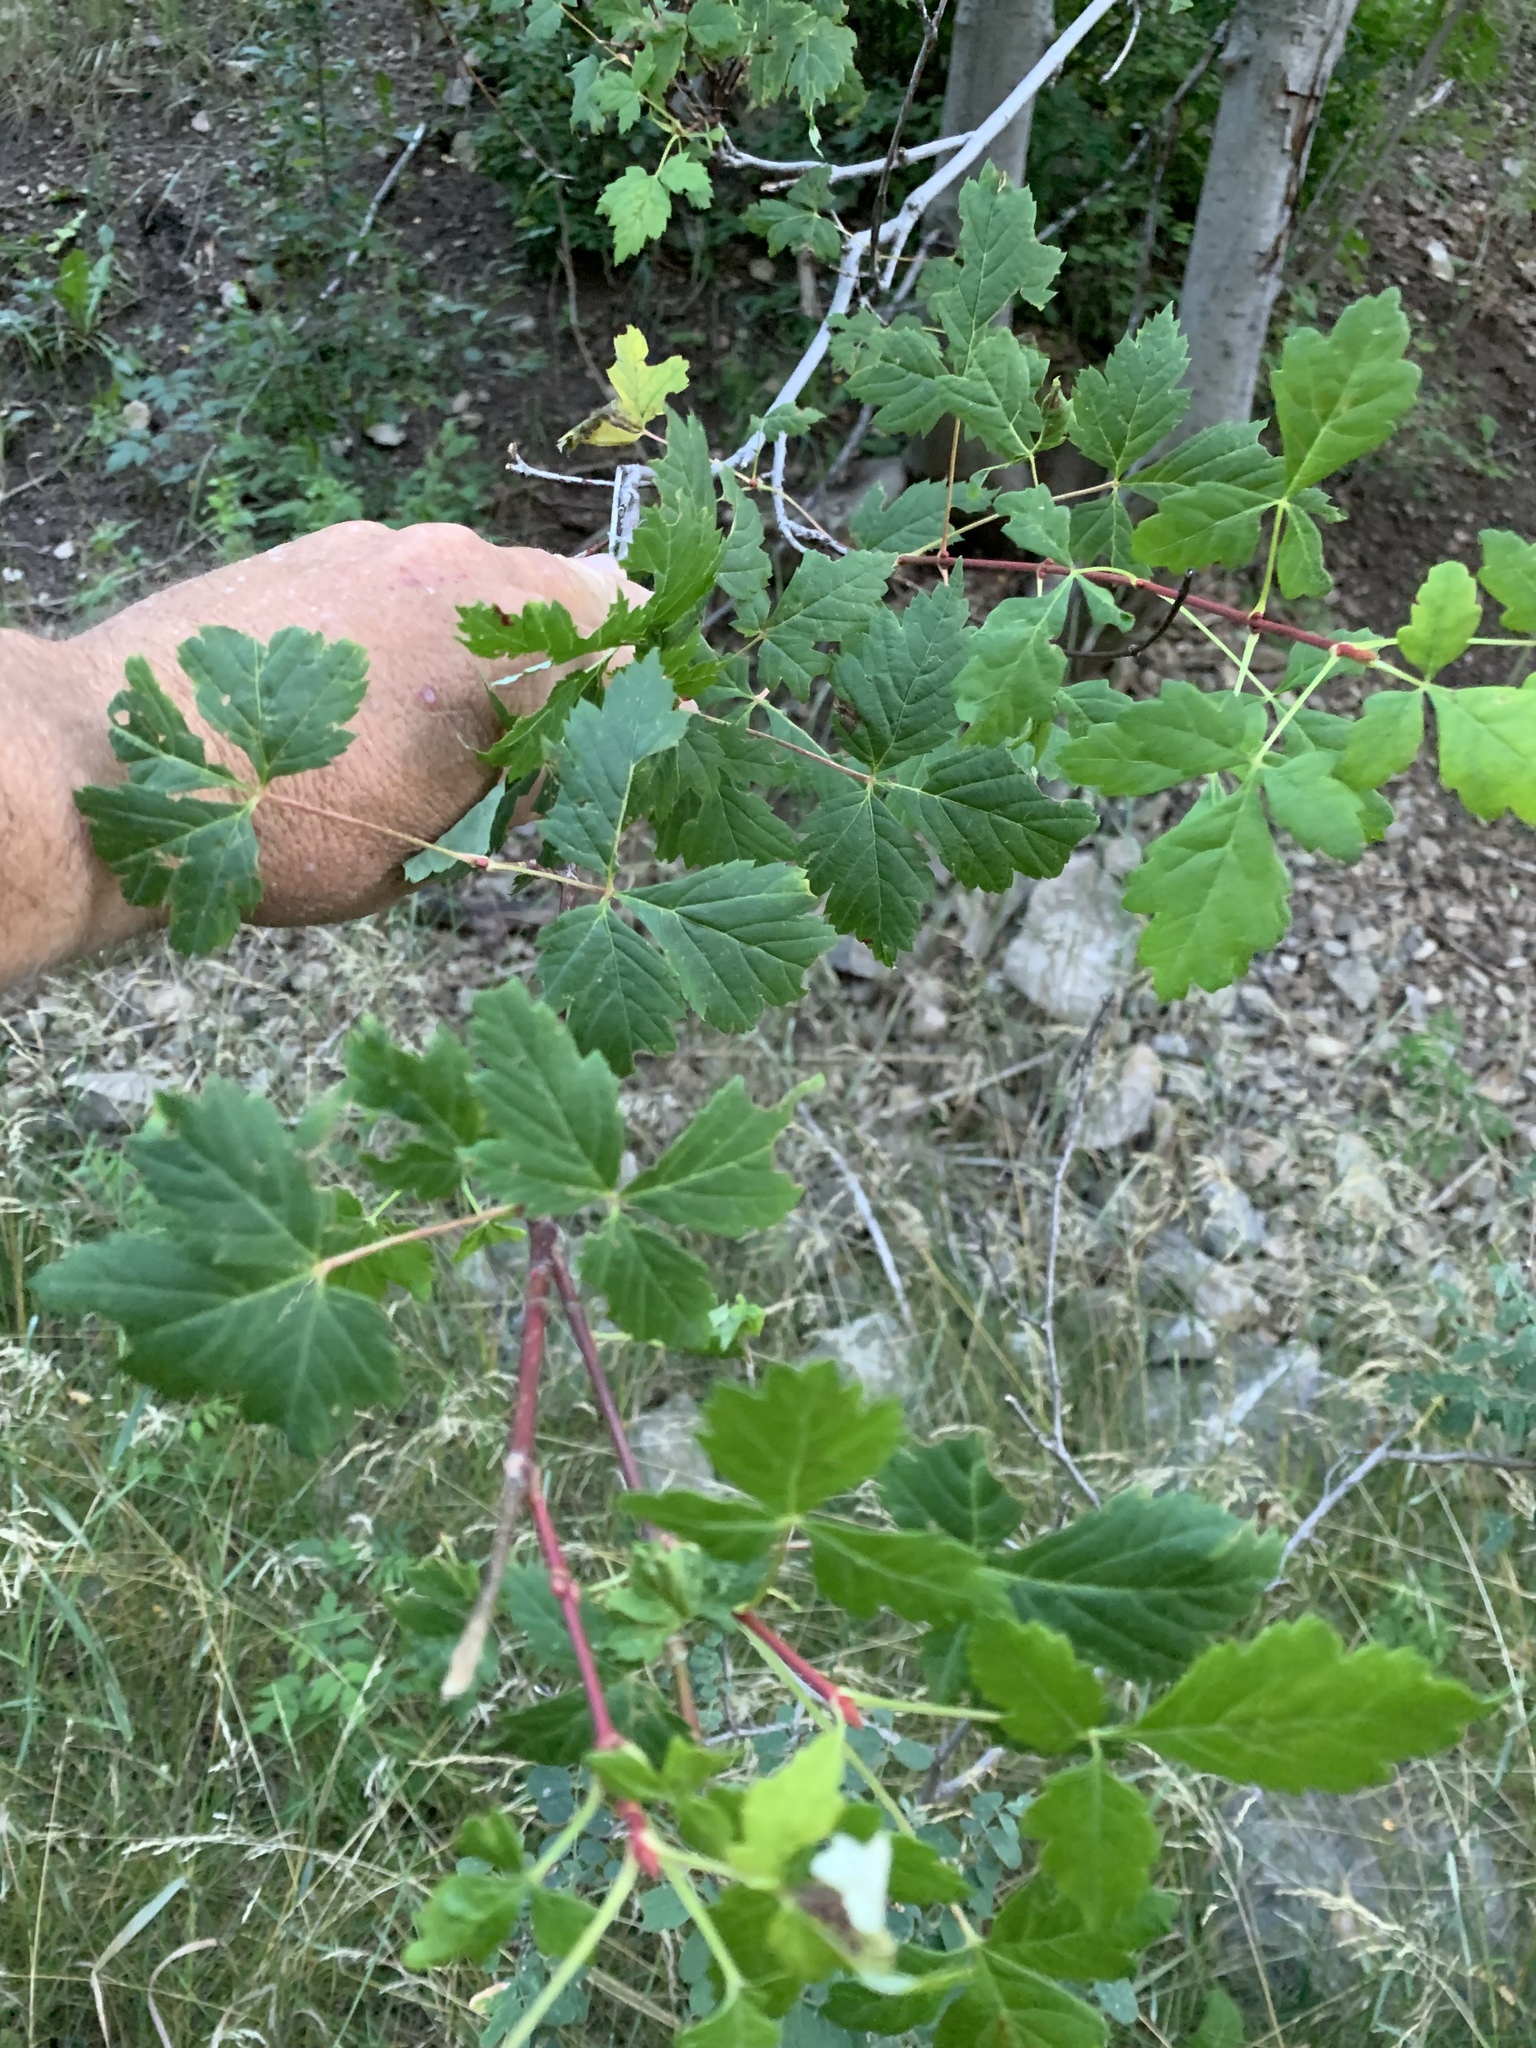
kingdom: Plantae
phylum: Tracheophyta
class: Magnoliopsida
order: Sapindales
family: Sapindaceae
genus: Acer
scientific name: Acer glabrum
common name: Rocky mountain maple
